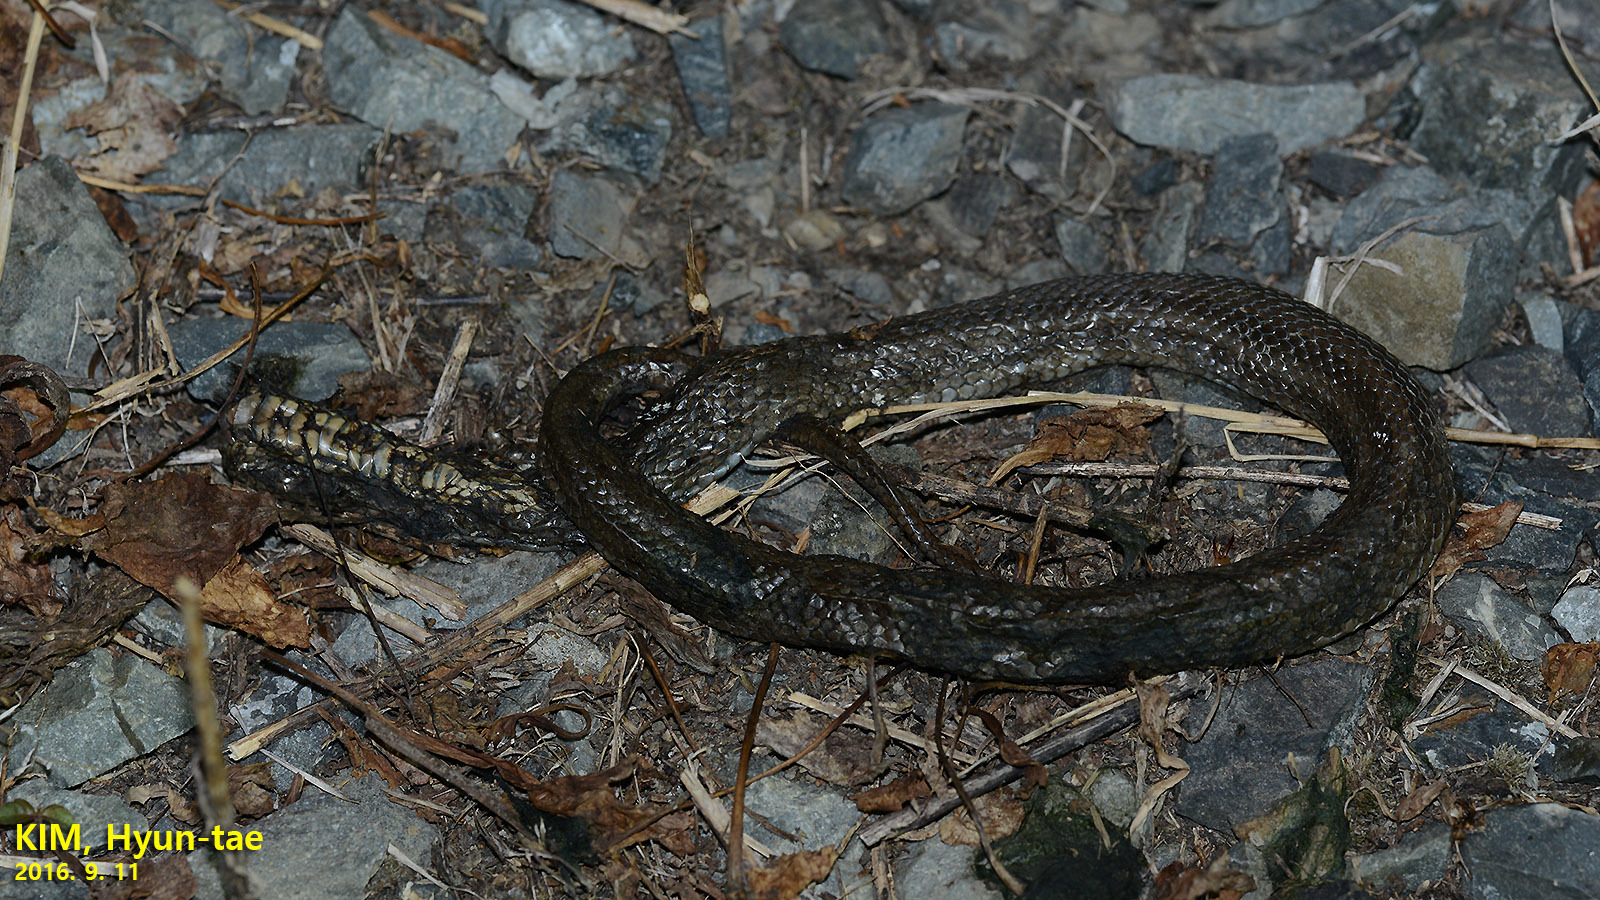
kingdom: Animalia
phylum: Chordata
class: Squamata
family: Colubridae
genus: Oocatochus
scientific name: Oocatochus rufodorsatus
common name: Frog-eating rat snake
